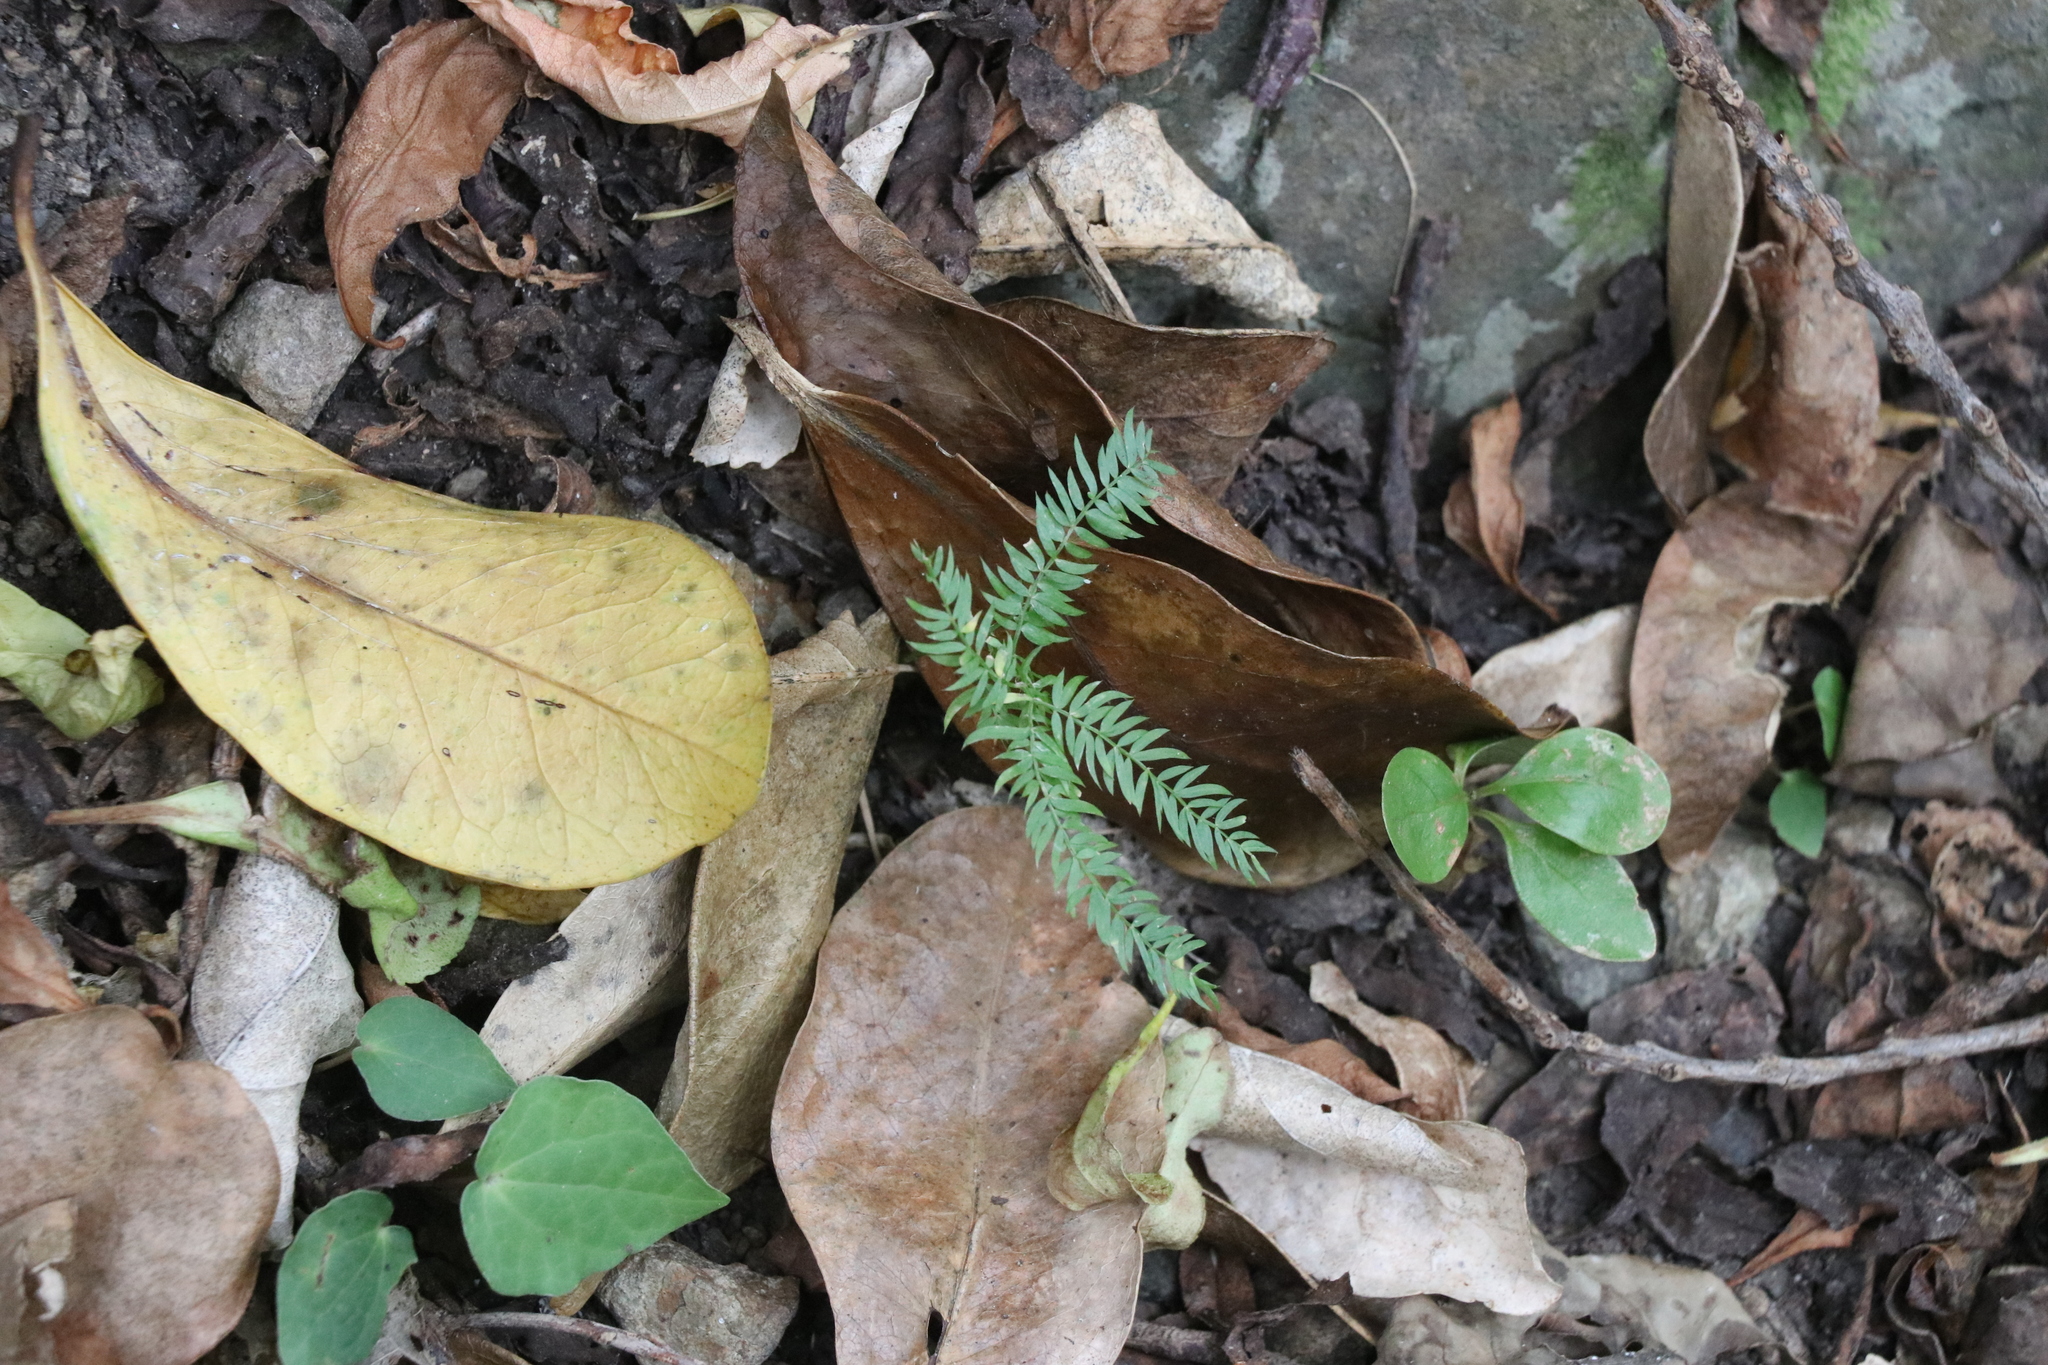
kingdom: Plantae
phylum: Tracheophyta
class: Liliopsida
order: Asparagales
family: Asparagaceae
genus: Asparagus
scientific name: Asparagus scandens
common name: Asparagus-fern
